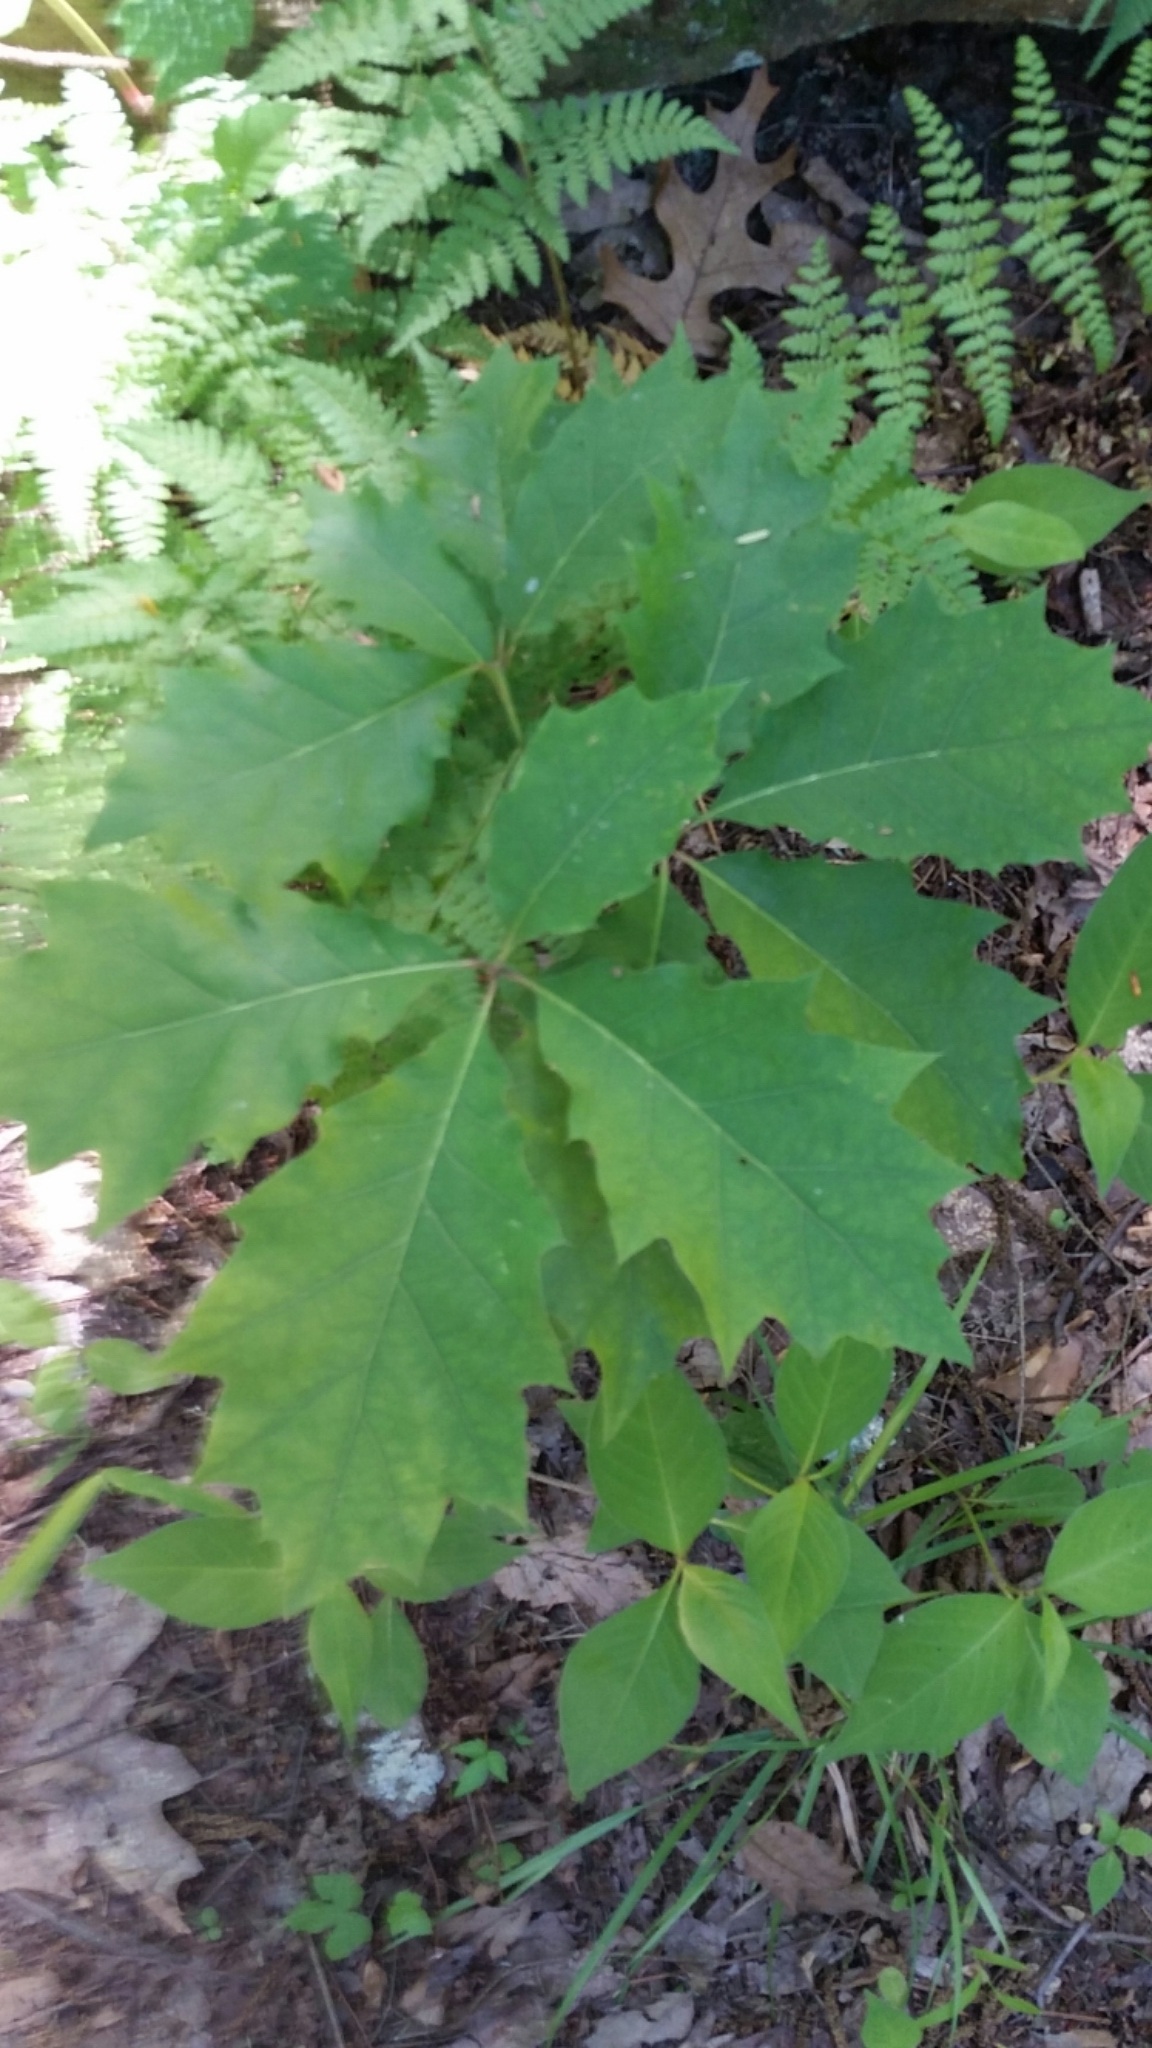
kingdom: Plantae
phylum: Tracheophyta
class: Magnoliopsida
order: Fagales
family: Fagaceae
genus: Quercus
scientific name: Quercus rubra
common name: Red oak
